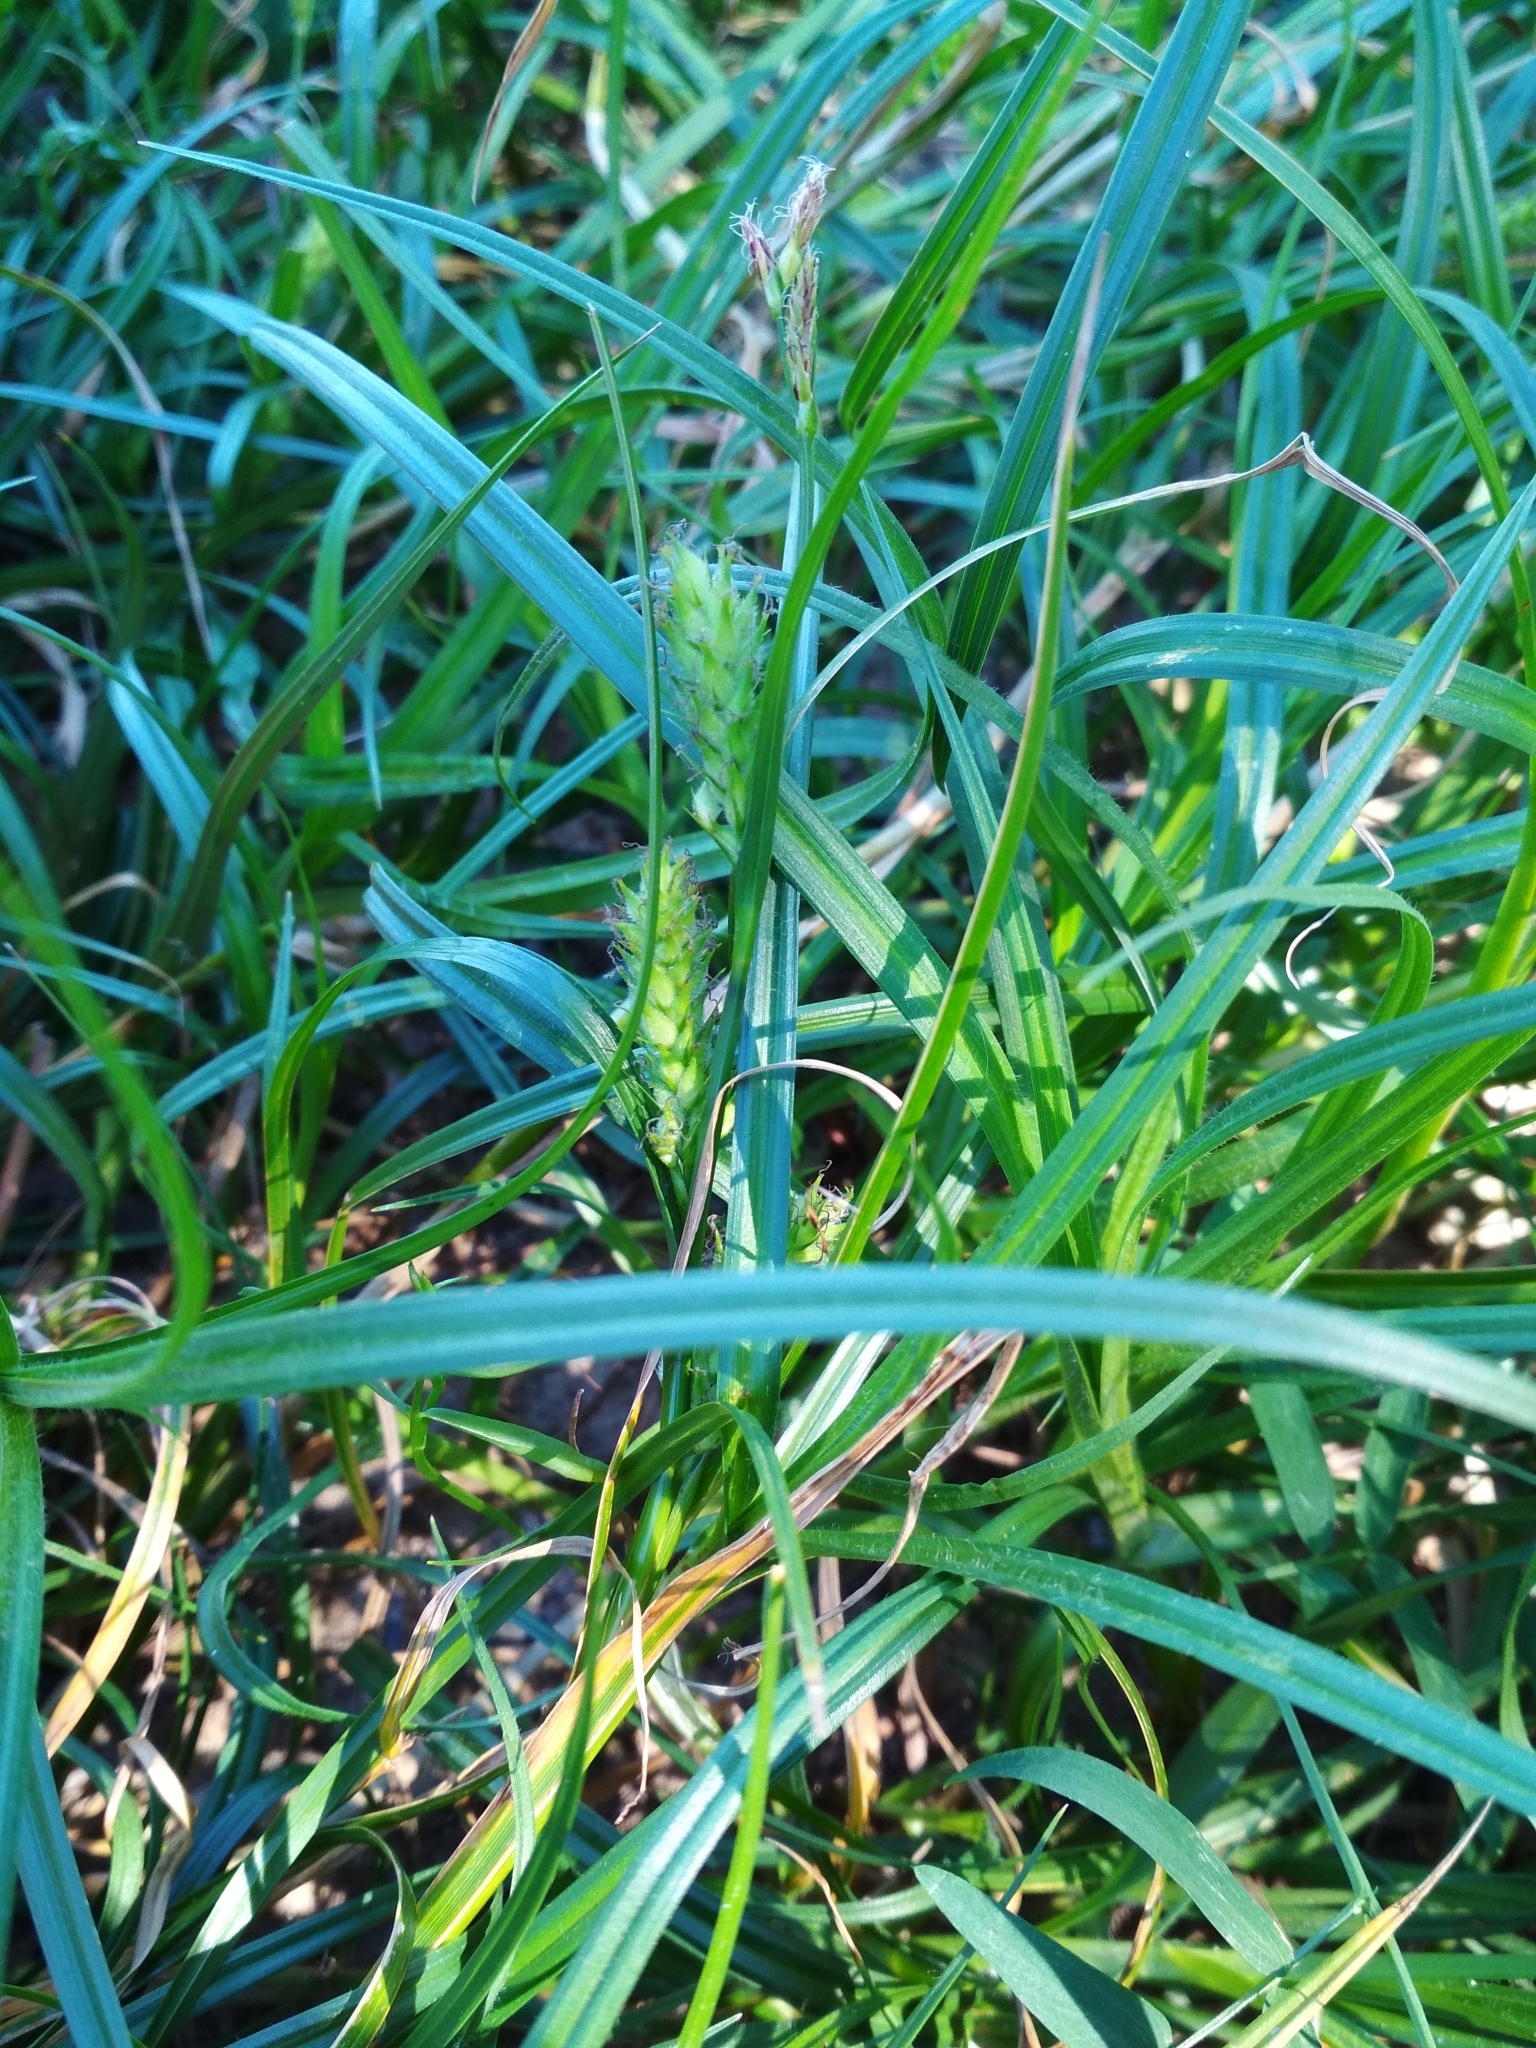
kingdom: Plantae
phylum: Tracheophyta
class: Liliopsida
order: Poales
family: Cyperaceae
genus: Carex
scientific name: Carex hirta
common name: Hairy sedge
